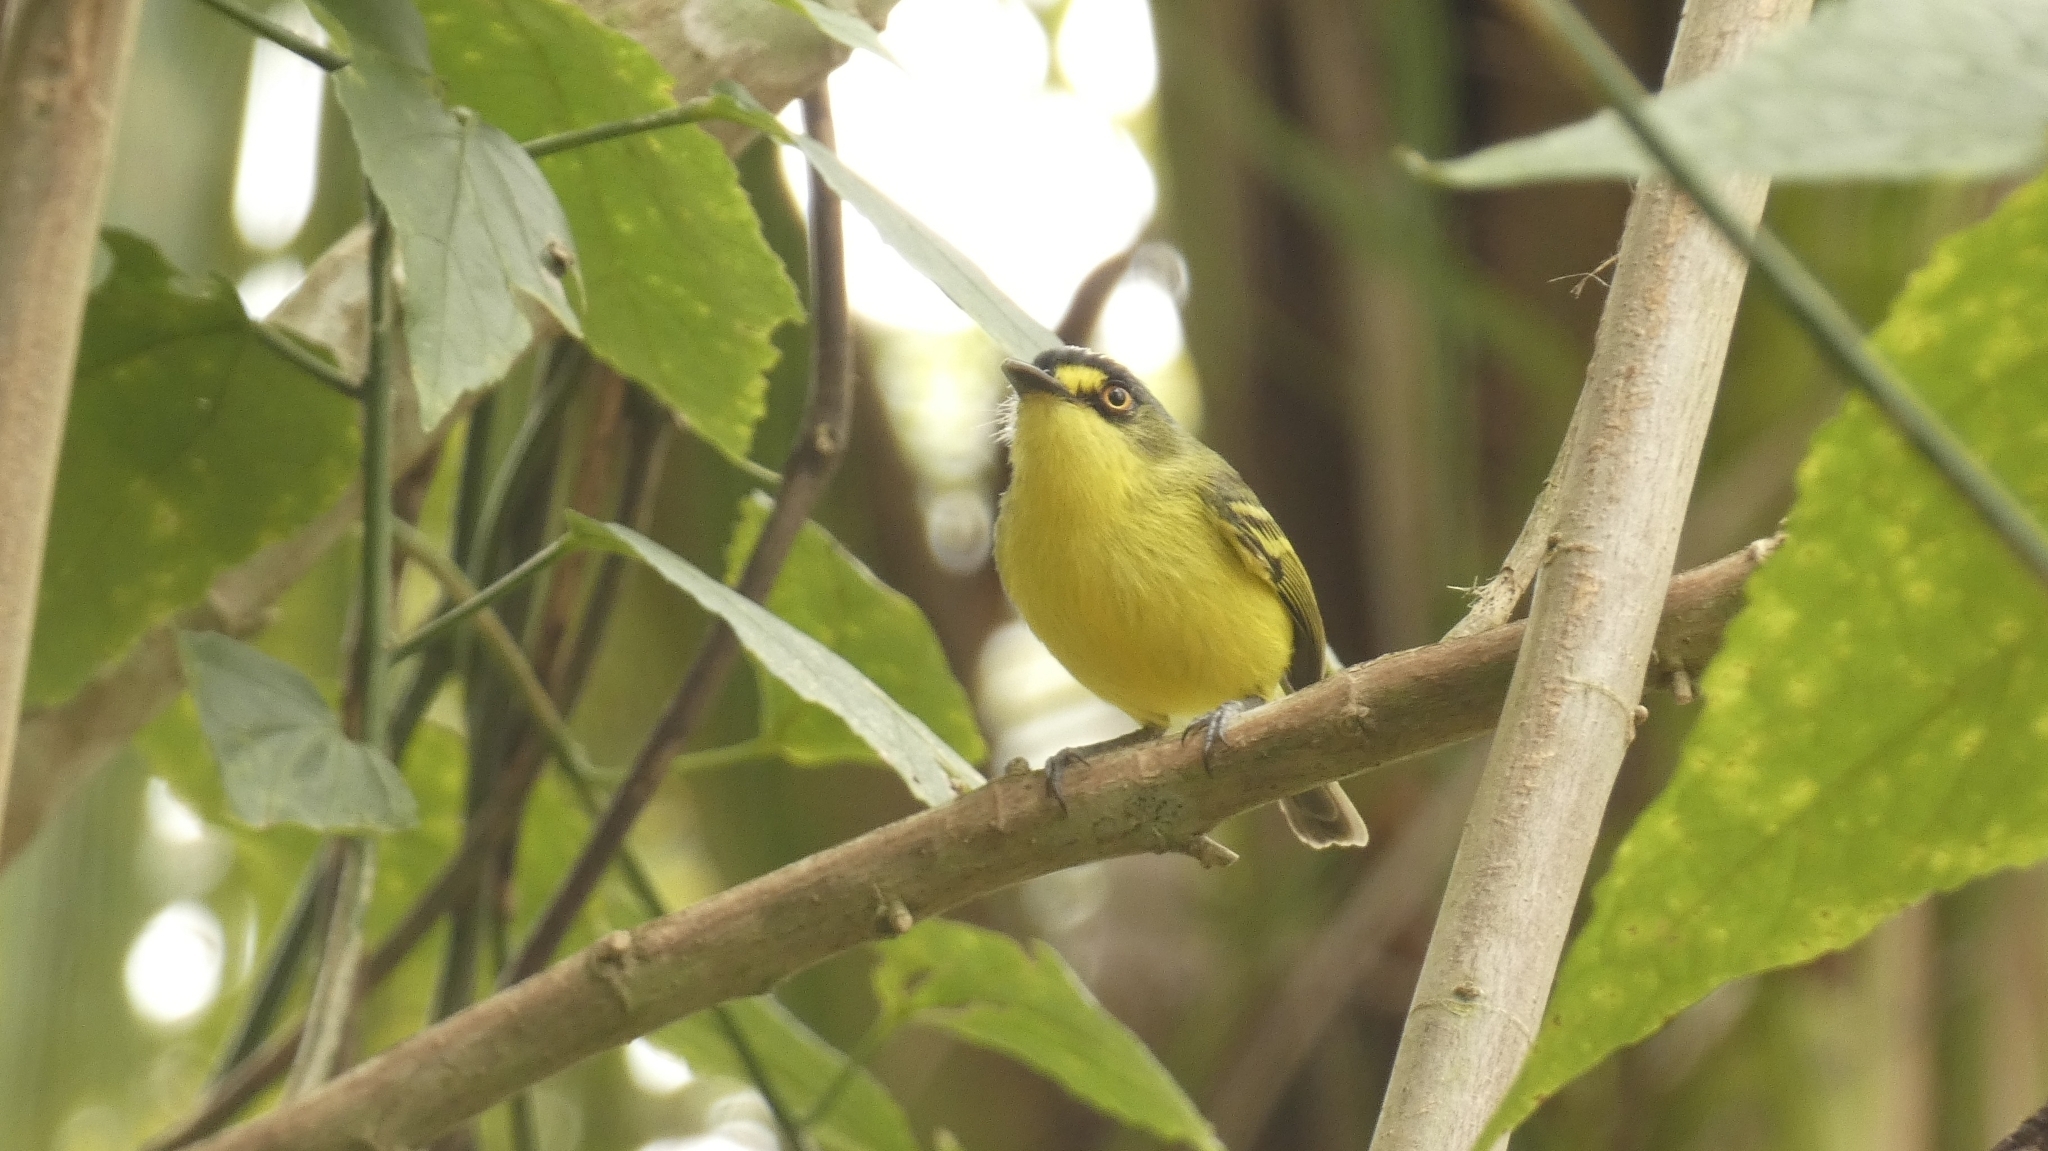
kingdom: Animalia
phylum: Chordata
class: Aves
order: Passeriformes
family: Tyrannidae
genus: Todirostrum
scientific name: Todirostrum poliocephalum
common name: Yellow-lored tody-flycatcher
